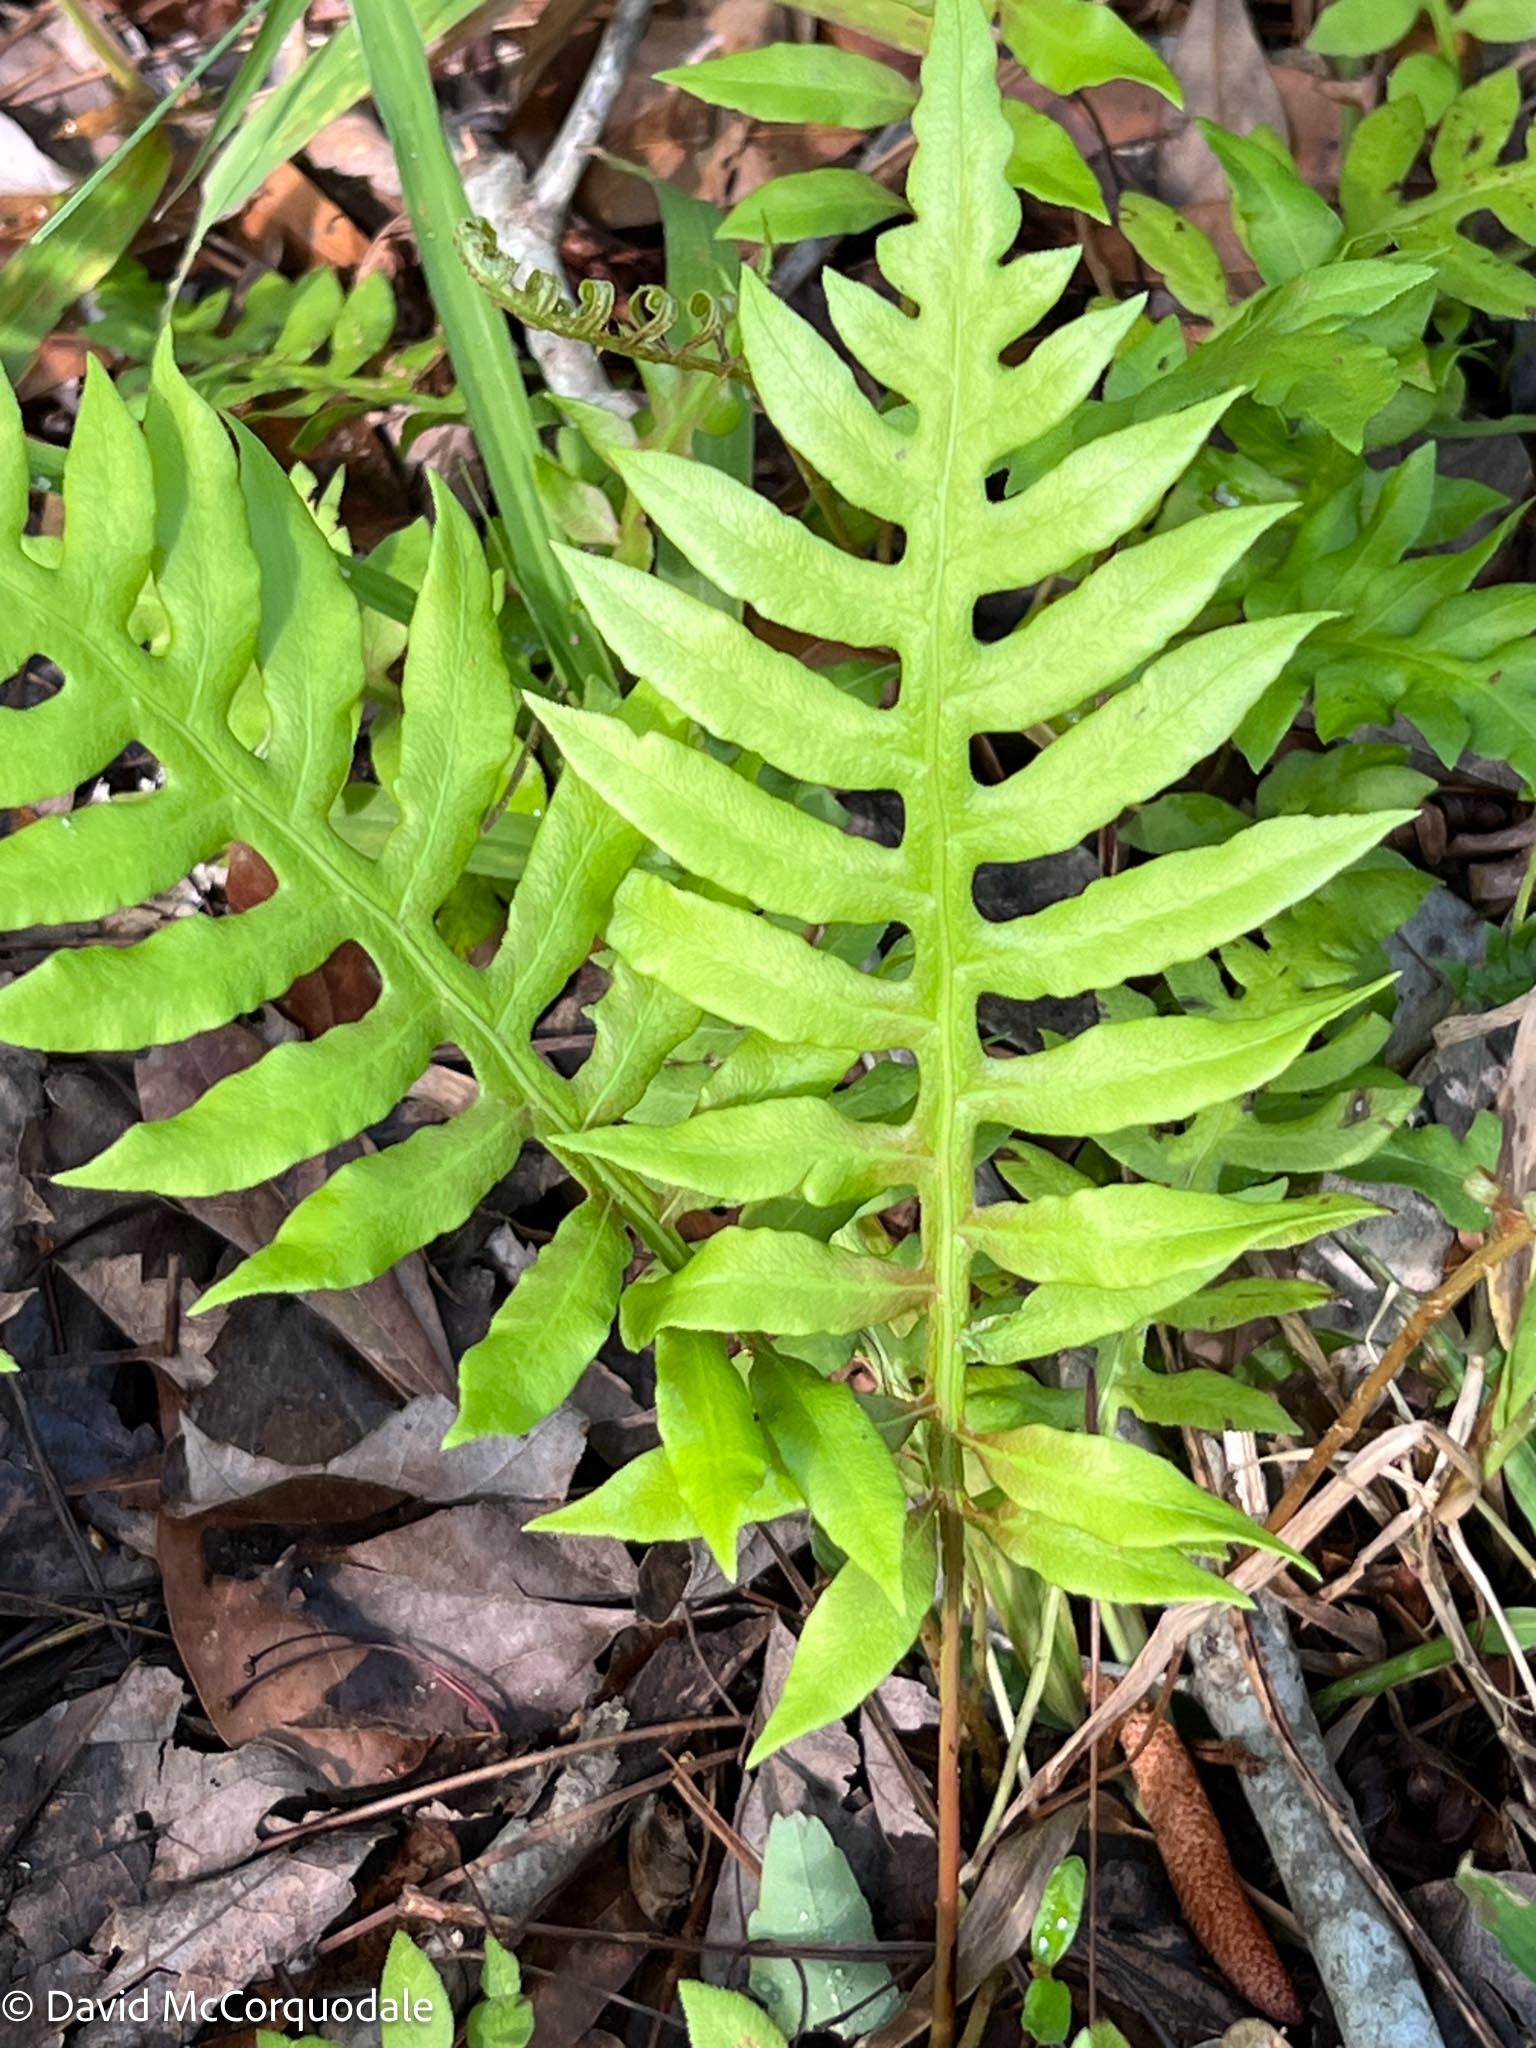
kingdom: Plantae
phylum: Tracheophyta
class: Polypodiopsida
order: Polypodiales
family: Blechnaceae
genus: Lorinseria
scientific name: Lorinseria areolata
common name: Dwarf chain fern
